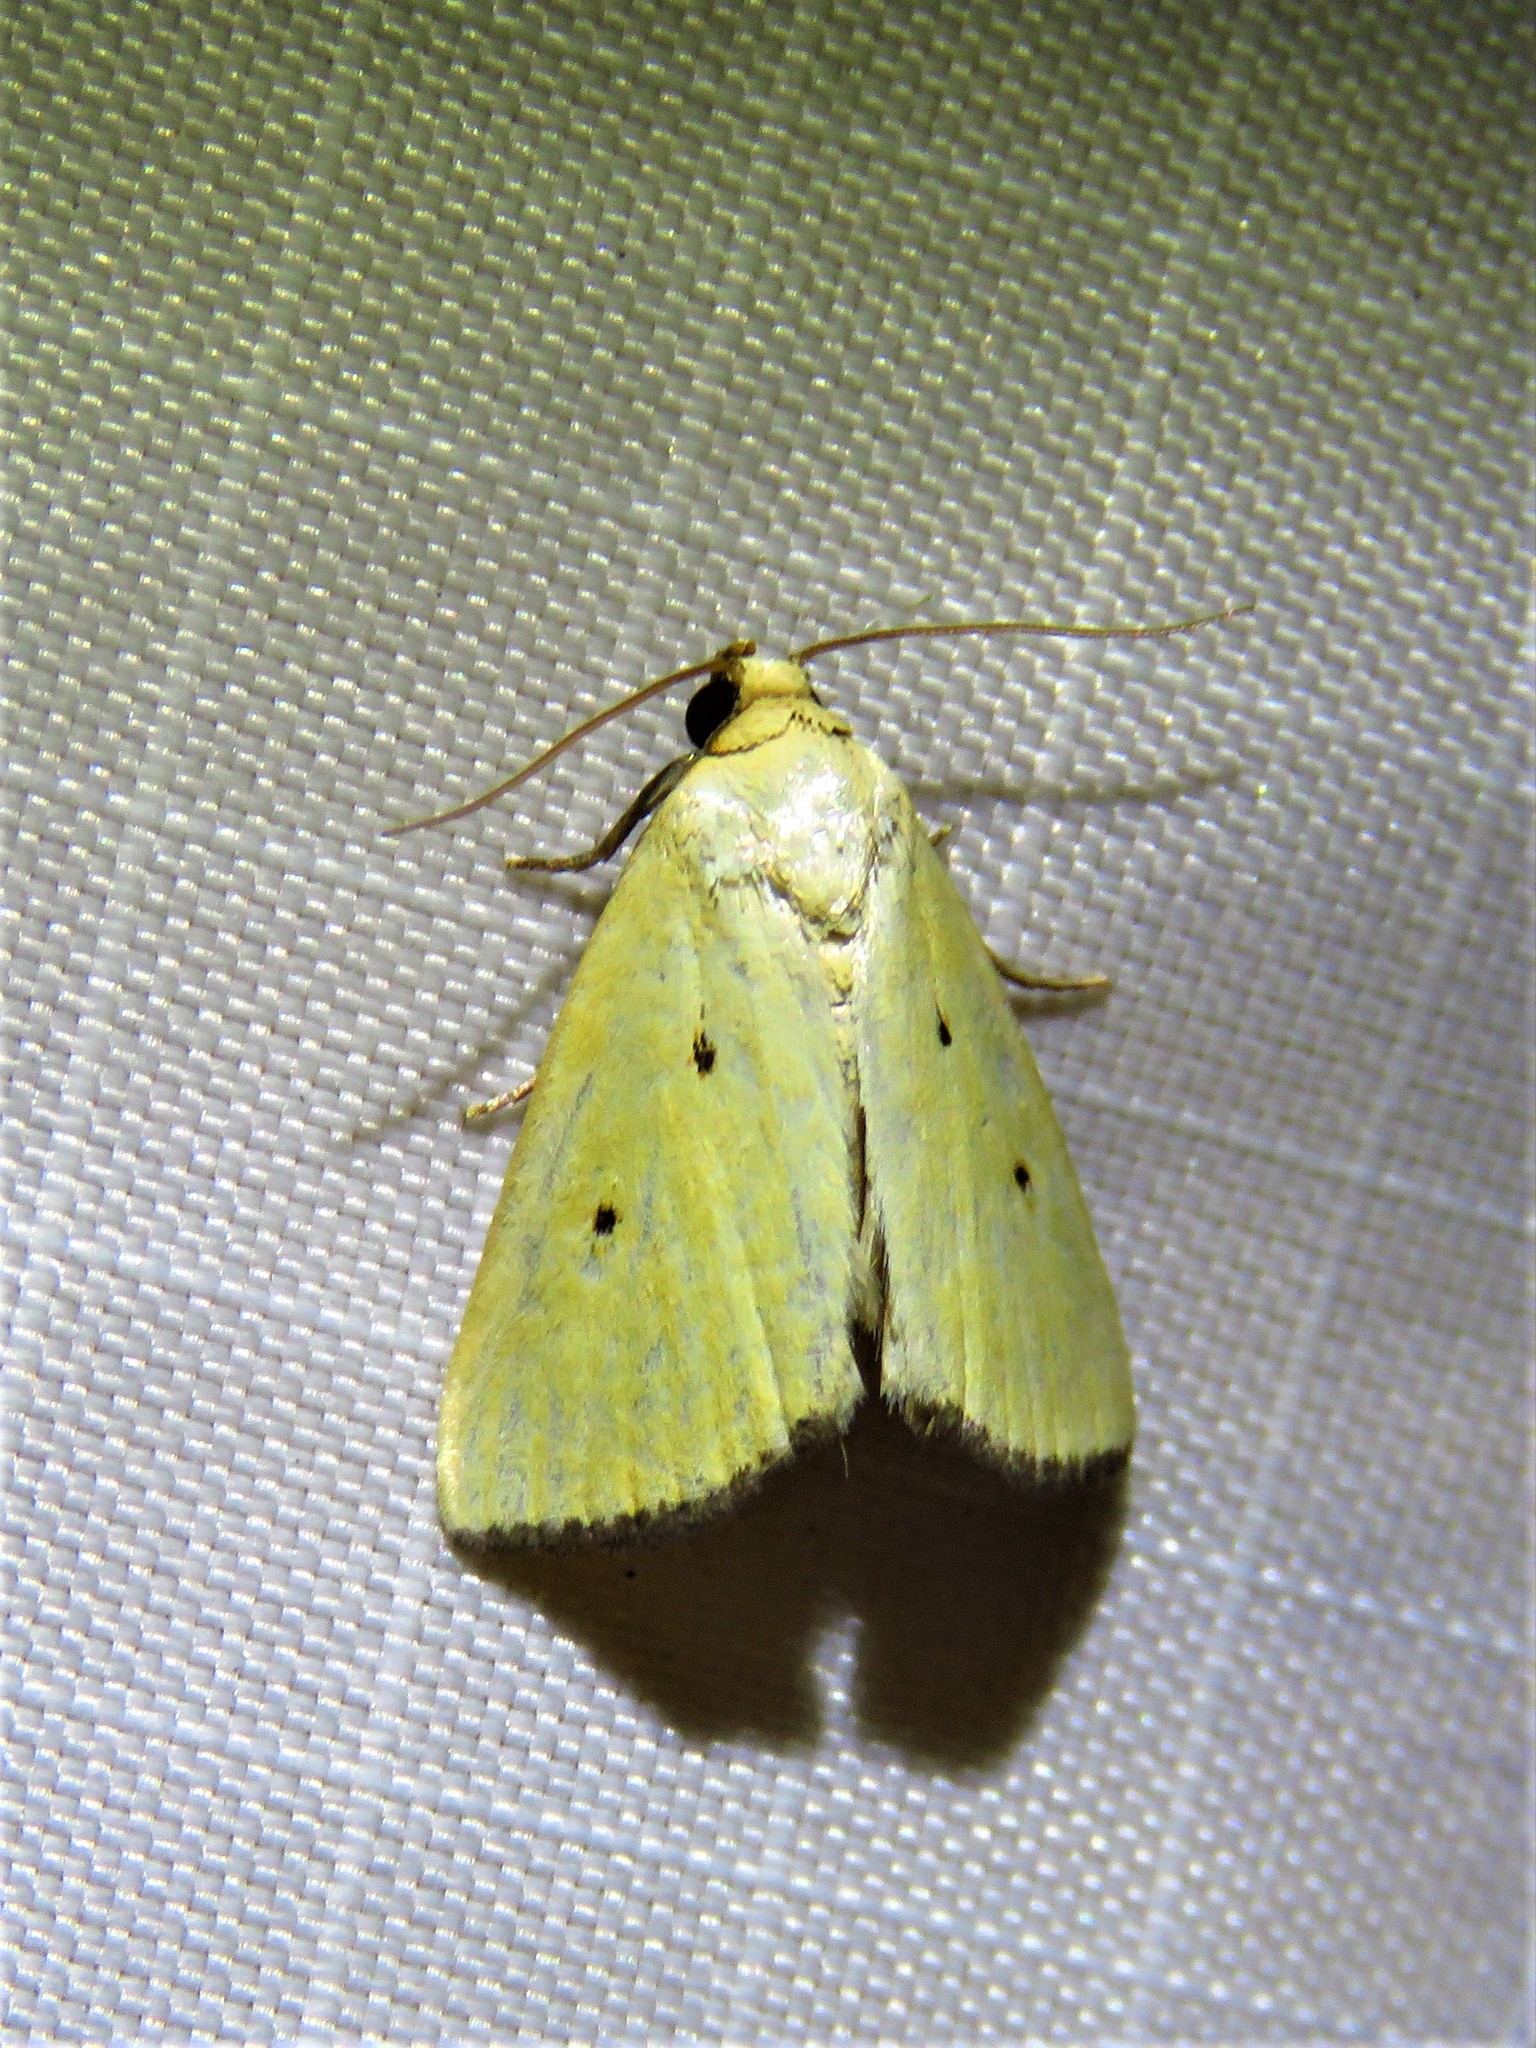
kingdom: Animalia
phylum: Arthropoda
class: Insecta
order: Lepidoptera
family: Noctuidae
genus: Marimatha
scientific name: Marimatha nigrofimbria
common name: Black-bordered lemon moth
